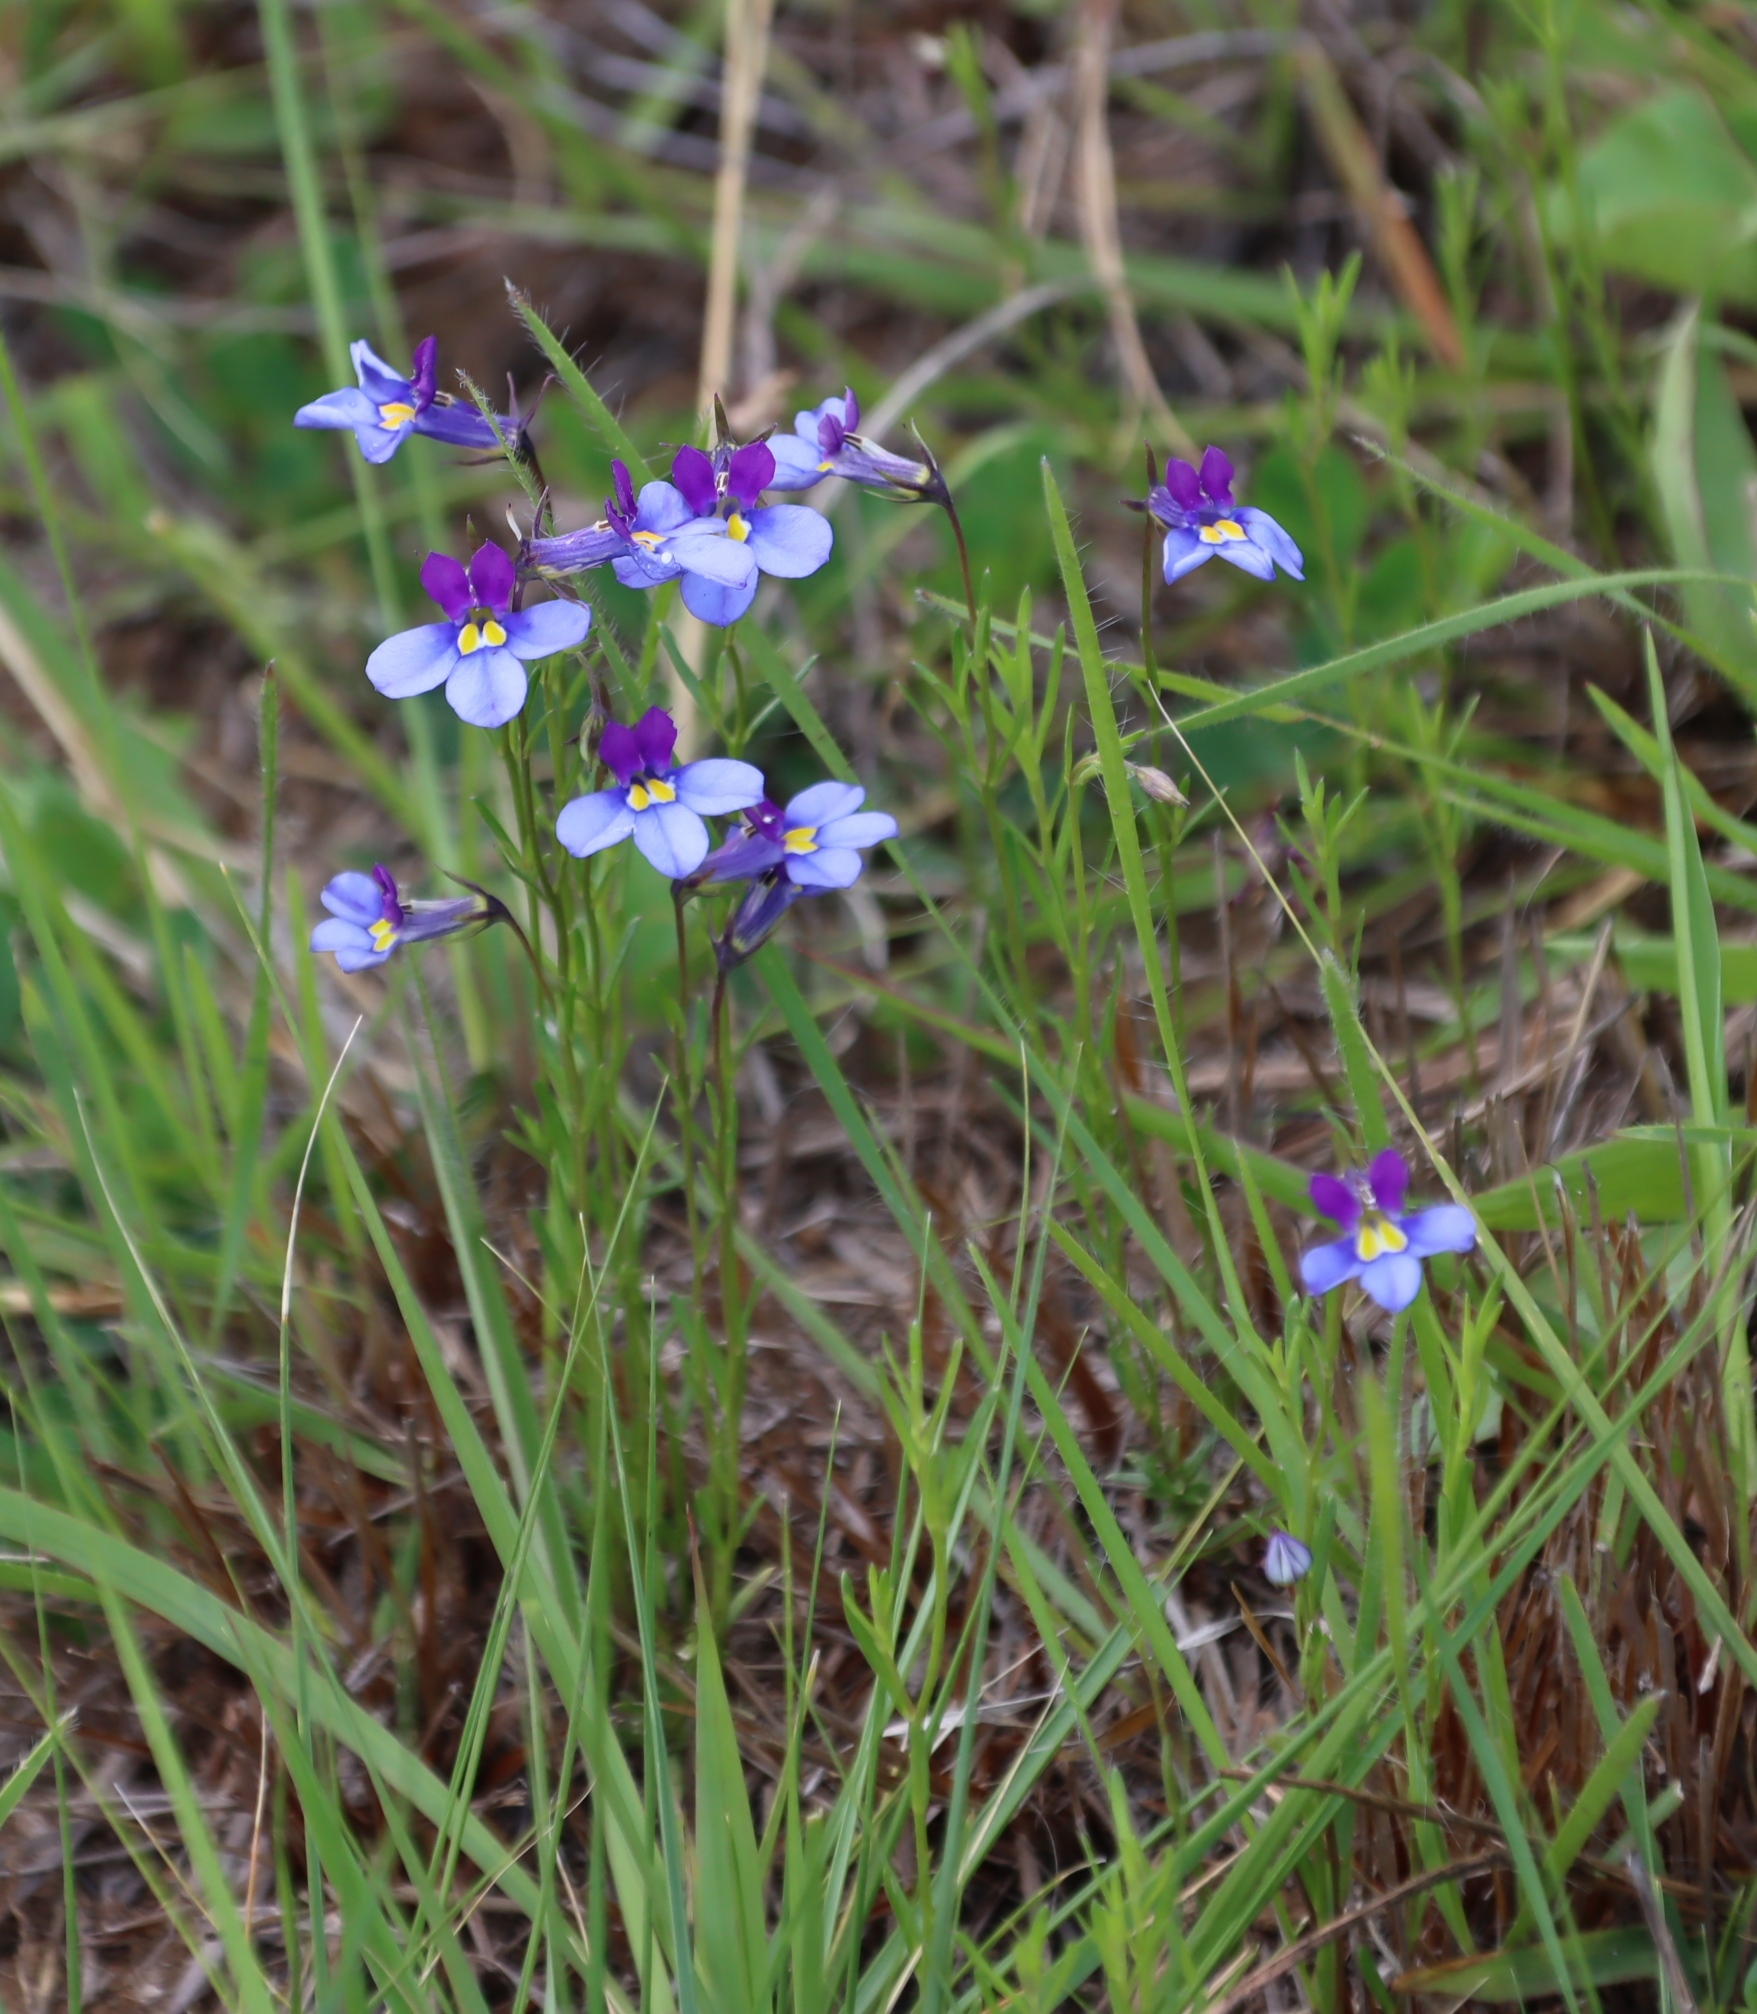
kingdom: Plantae
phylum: Tracheophyta
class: Magnoliopsida
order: Asterales
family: Campanulaceae
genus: Monopsis
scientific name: Monopsis decipiens
